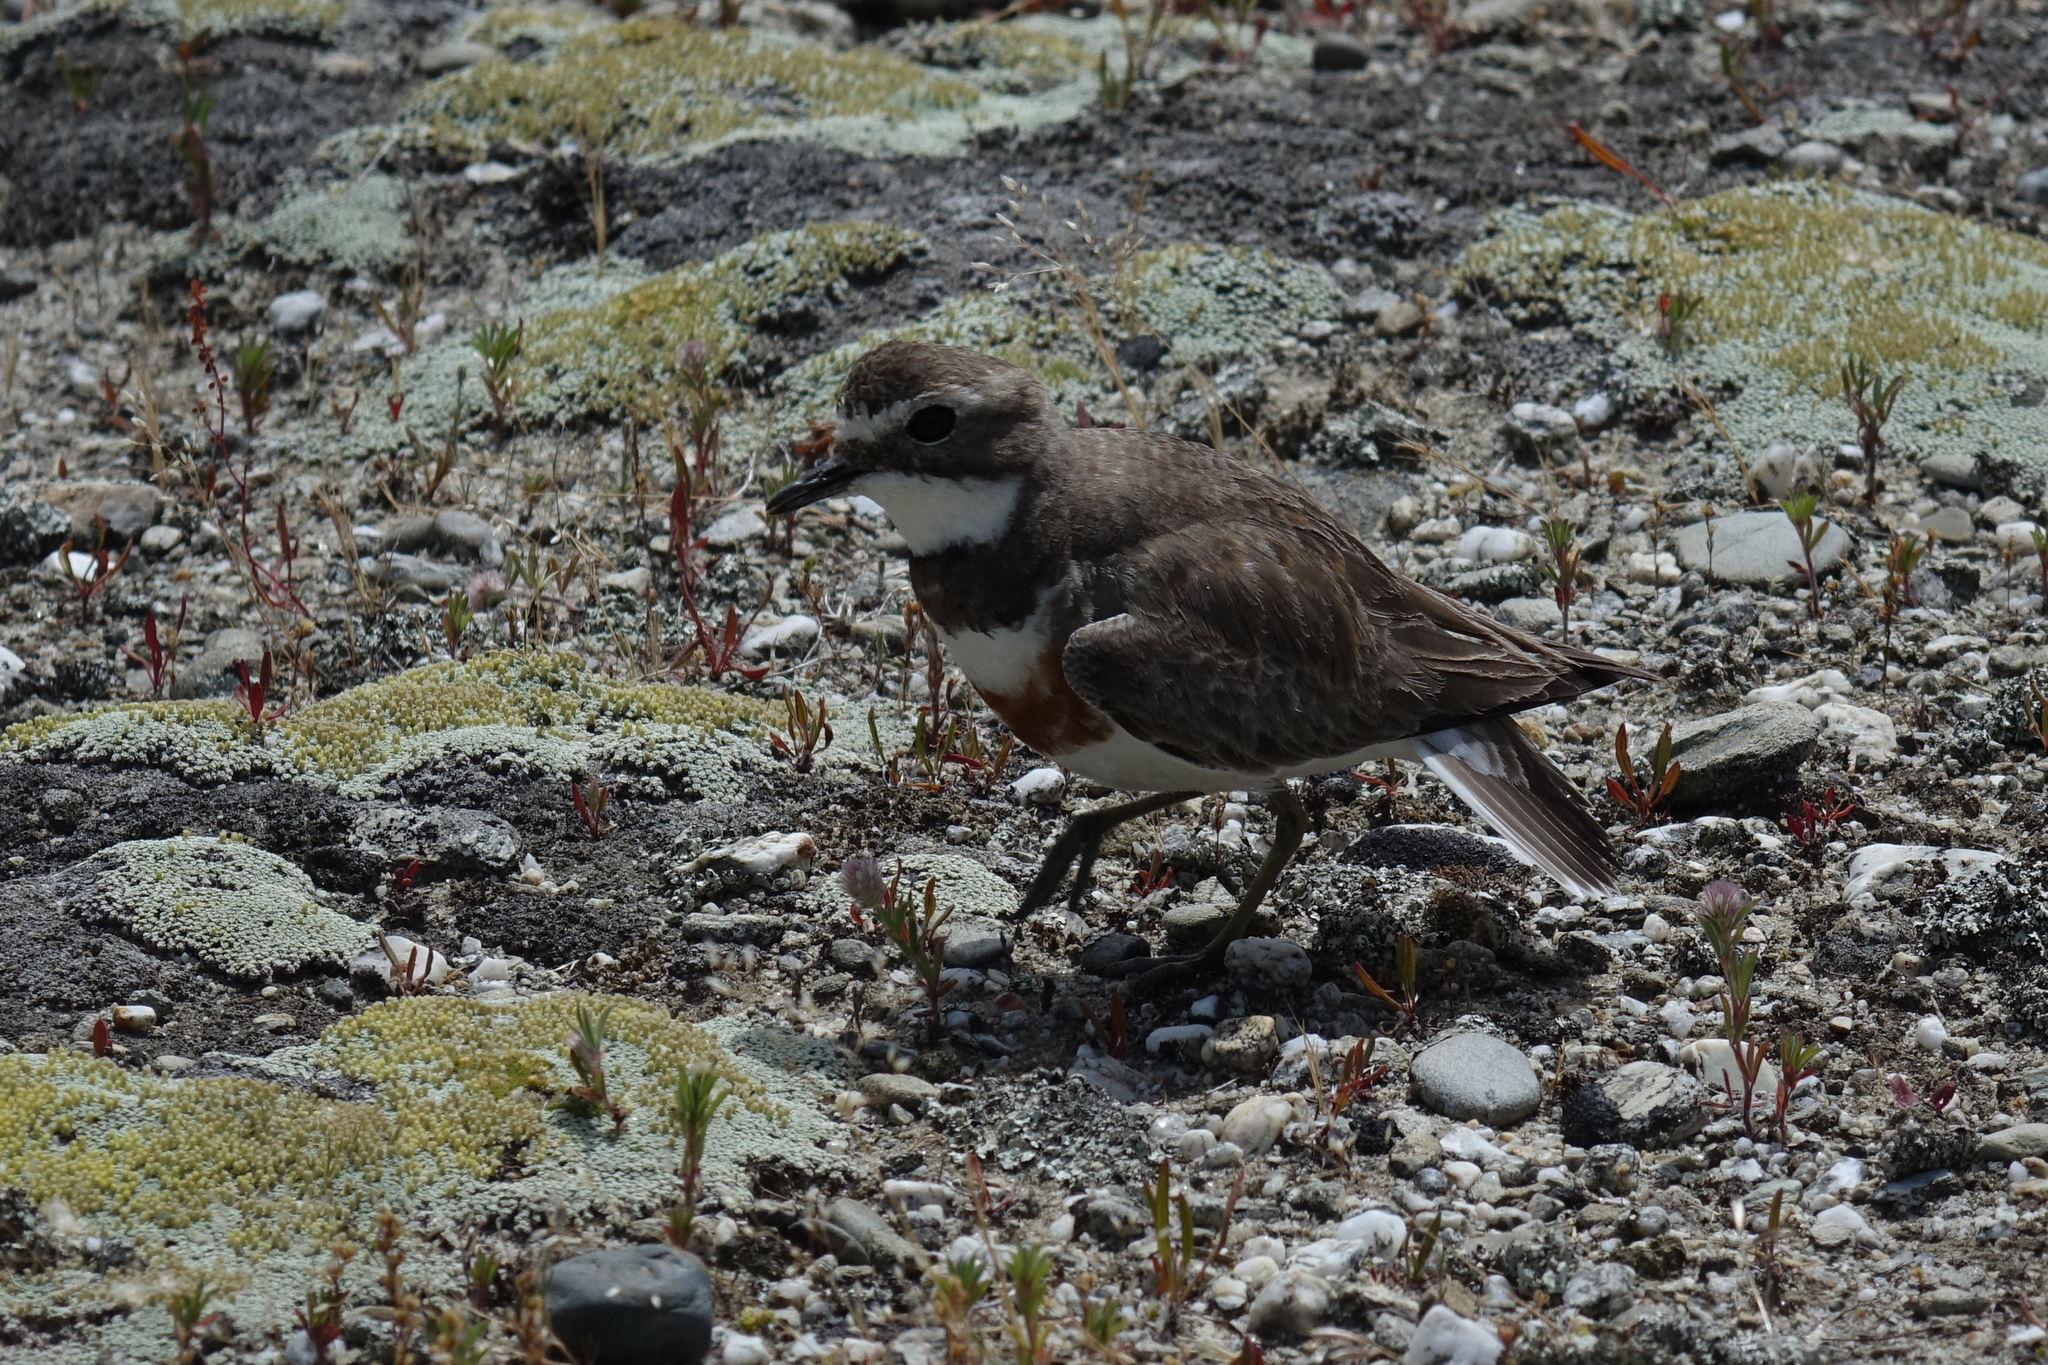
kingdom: Animalia
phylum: Chordata
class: Aves
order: Charadriiformes
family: Charadriidae
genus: Anarhynchus
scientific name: Anarhynchus
